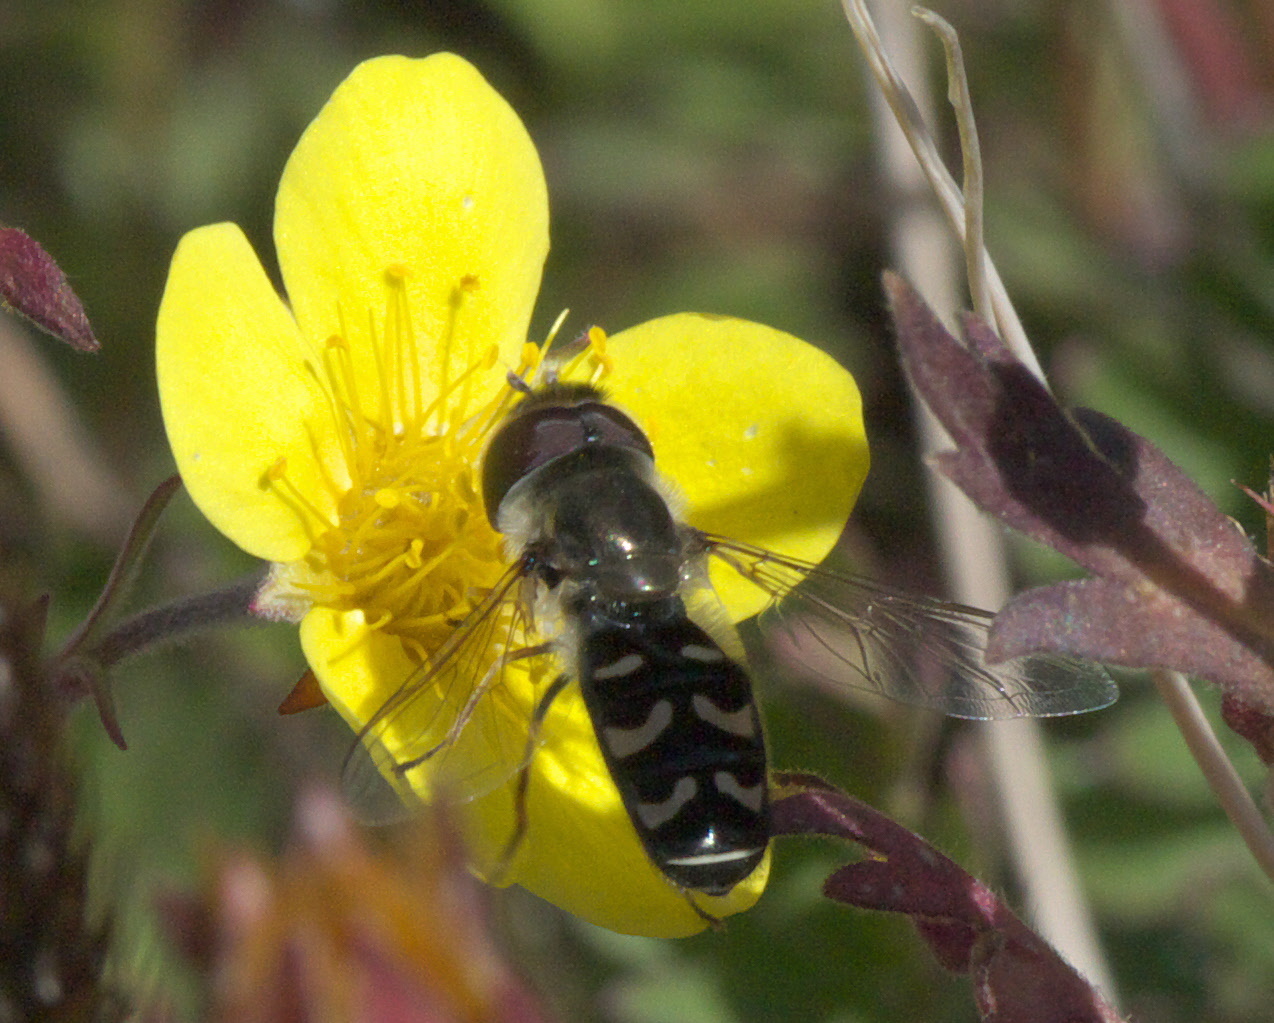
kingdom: Animalia
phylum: Arthropoda
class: Insecta
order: Diptera
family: Syrphidae
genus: Scaeva
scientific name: Scaeva affinis
